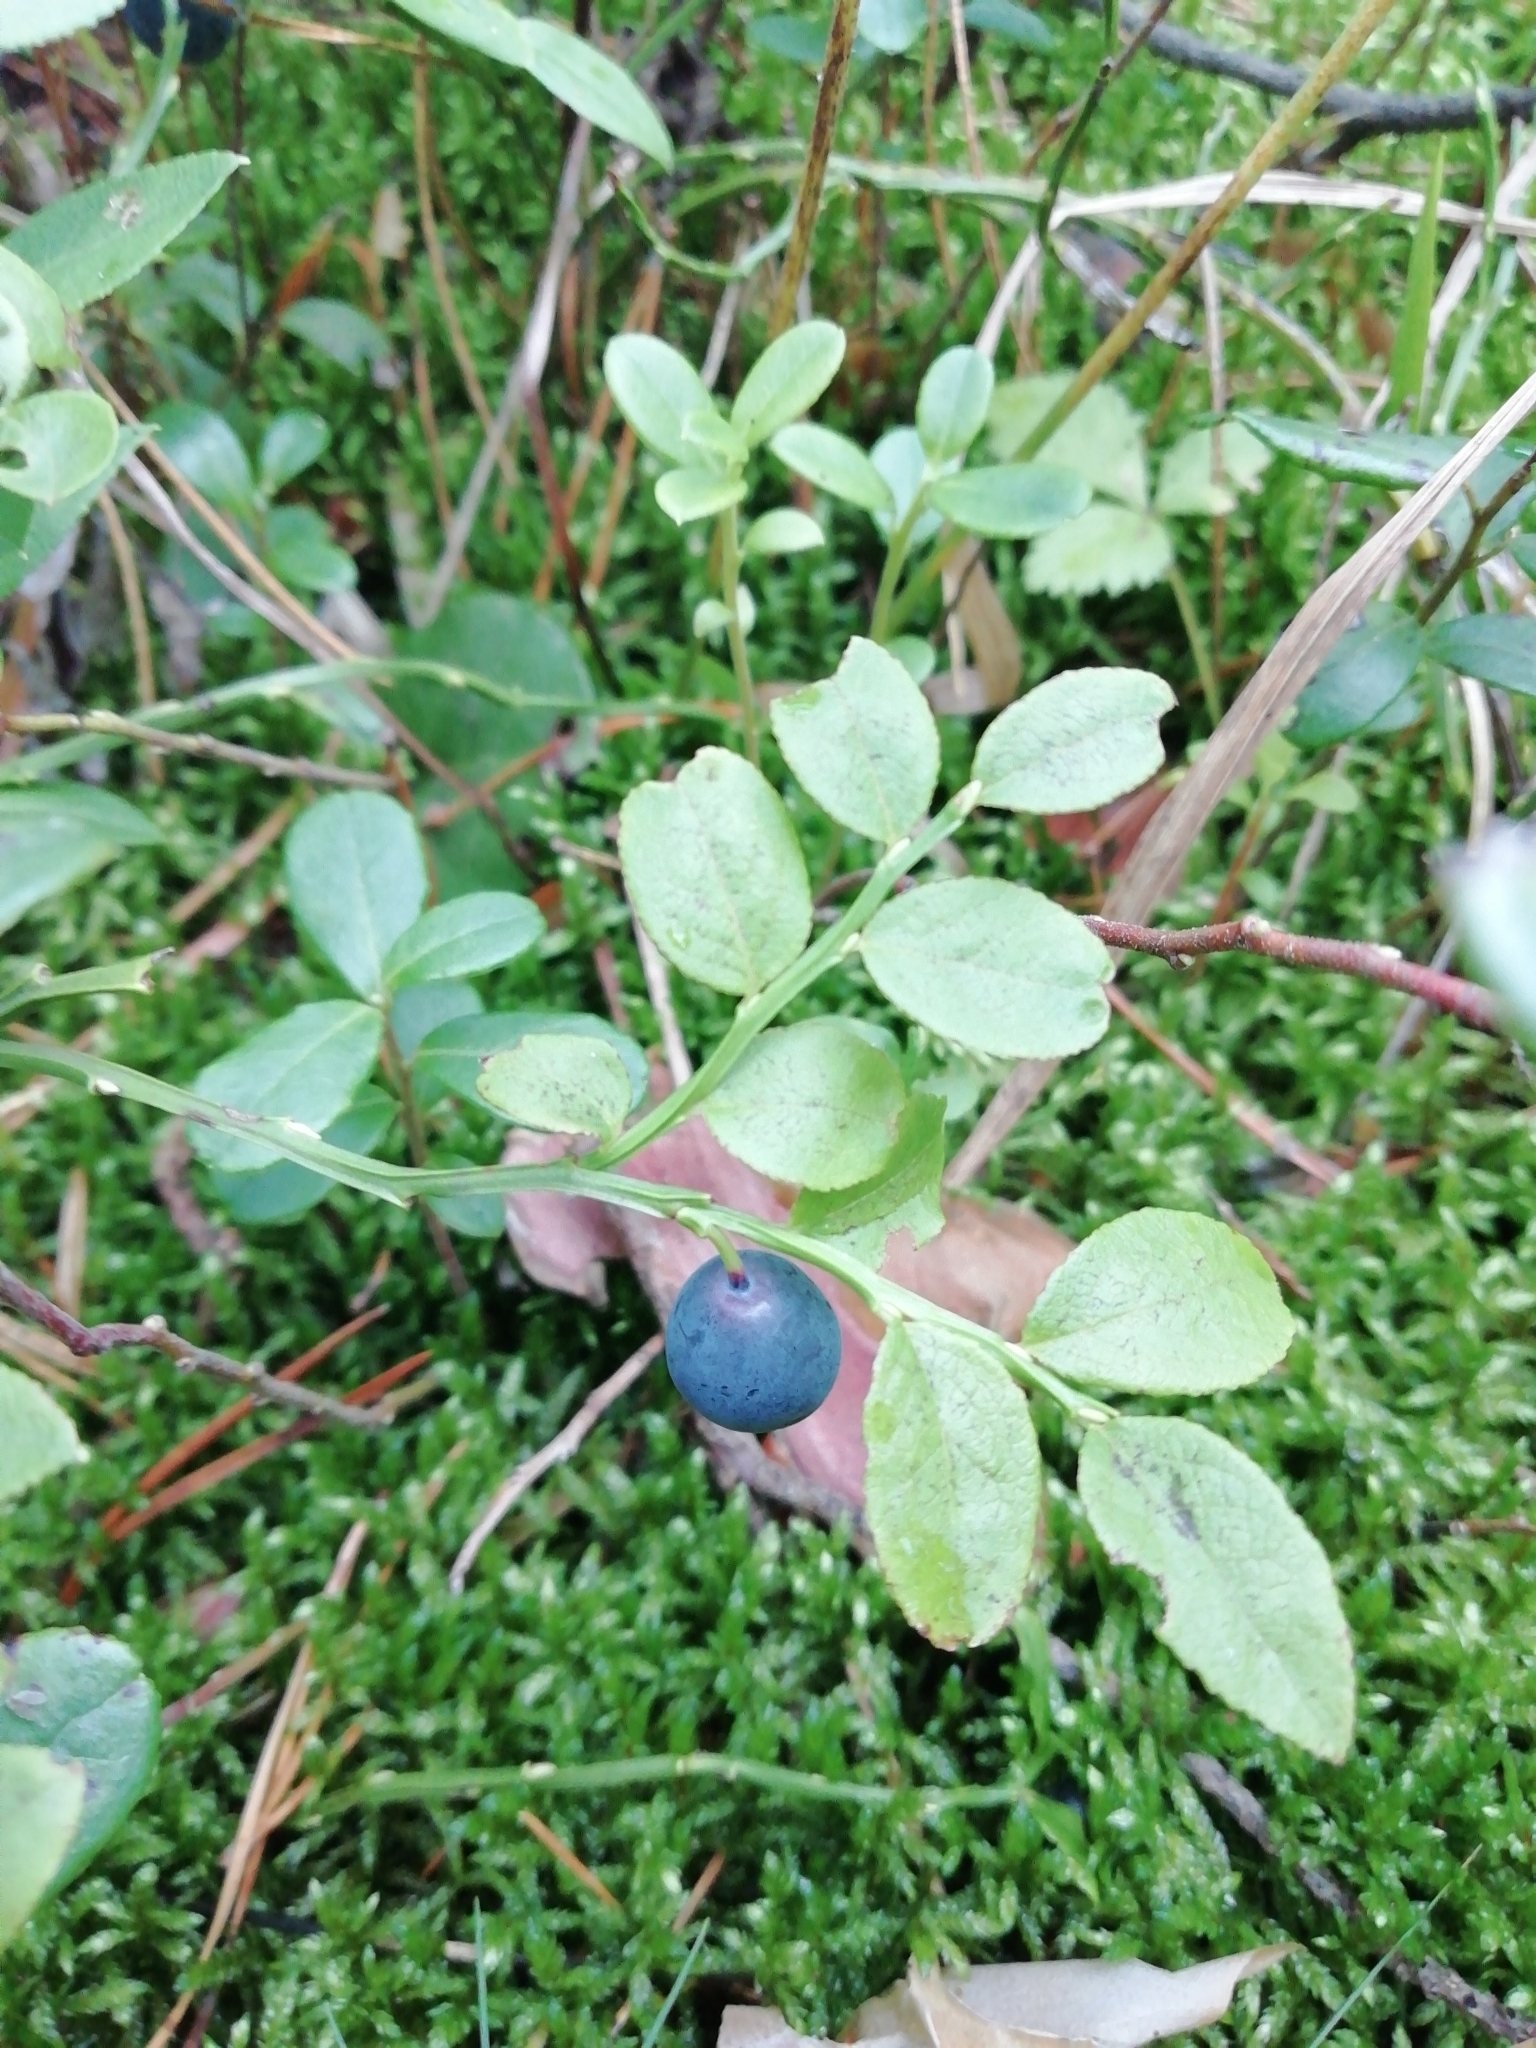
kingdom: Plantae
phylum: Tracheophyta
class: Magnoliopsida
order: Ericales
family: Ericaceae
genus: Vaccinium
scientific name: Vaccinium myrtillus
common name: Bilberry
